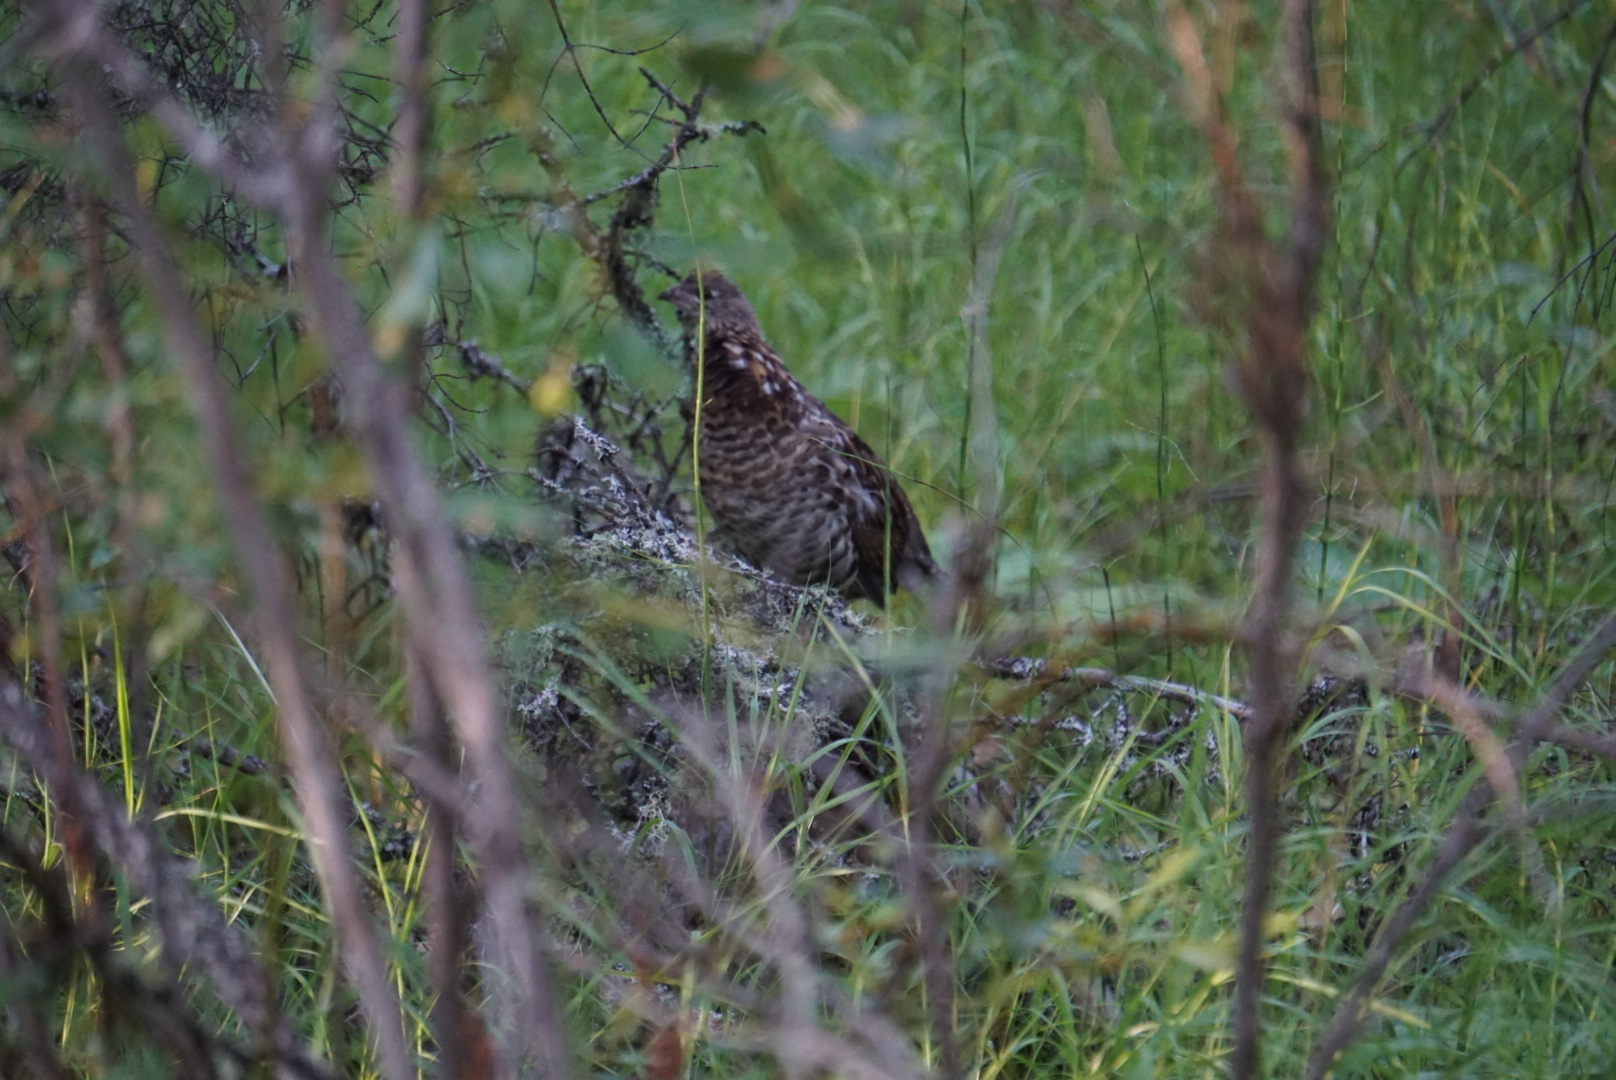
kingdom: Animalia
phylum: Chordata
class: Aves
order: Galliformes
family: Phasianidae
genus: Bonasa
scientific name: Bonasa umbellus
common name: Ruffed grouse
